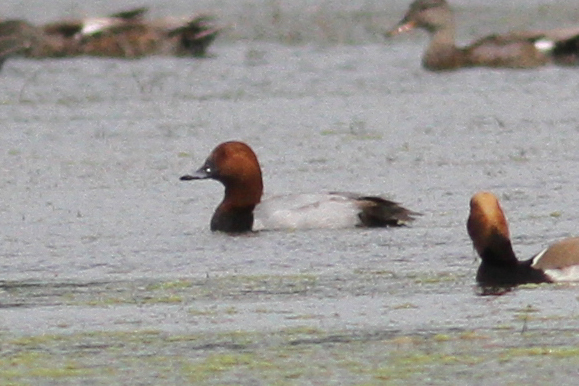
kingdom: Animalia
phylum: Chordata
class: Aves
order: Anseriformes
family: Anatidae
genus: Aythya
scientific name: Aythya ferina
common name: Common pochard
